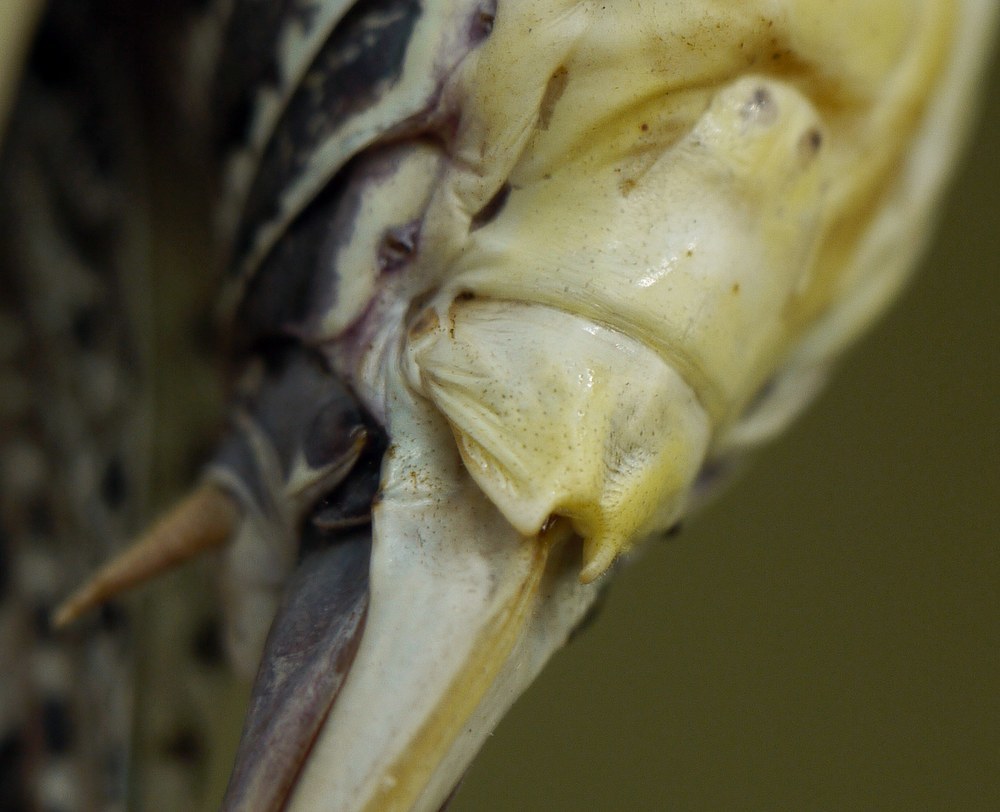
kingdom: Animalia
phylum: Arthropoda
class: Insecta
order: Orthoptera
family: Tettigoniidae
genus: Decticus
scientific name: Decticus verrucivorus
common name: Wart-biter
